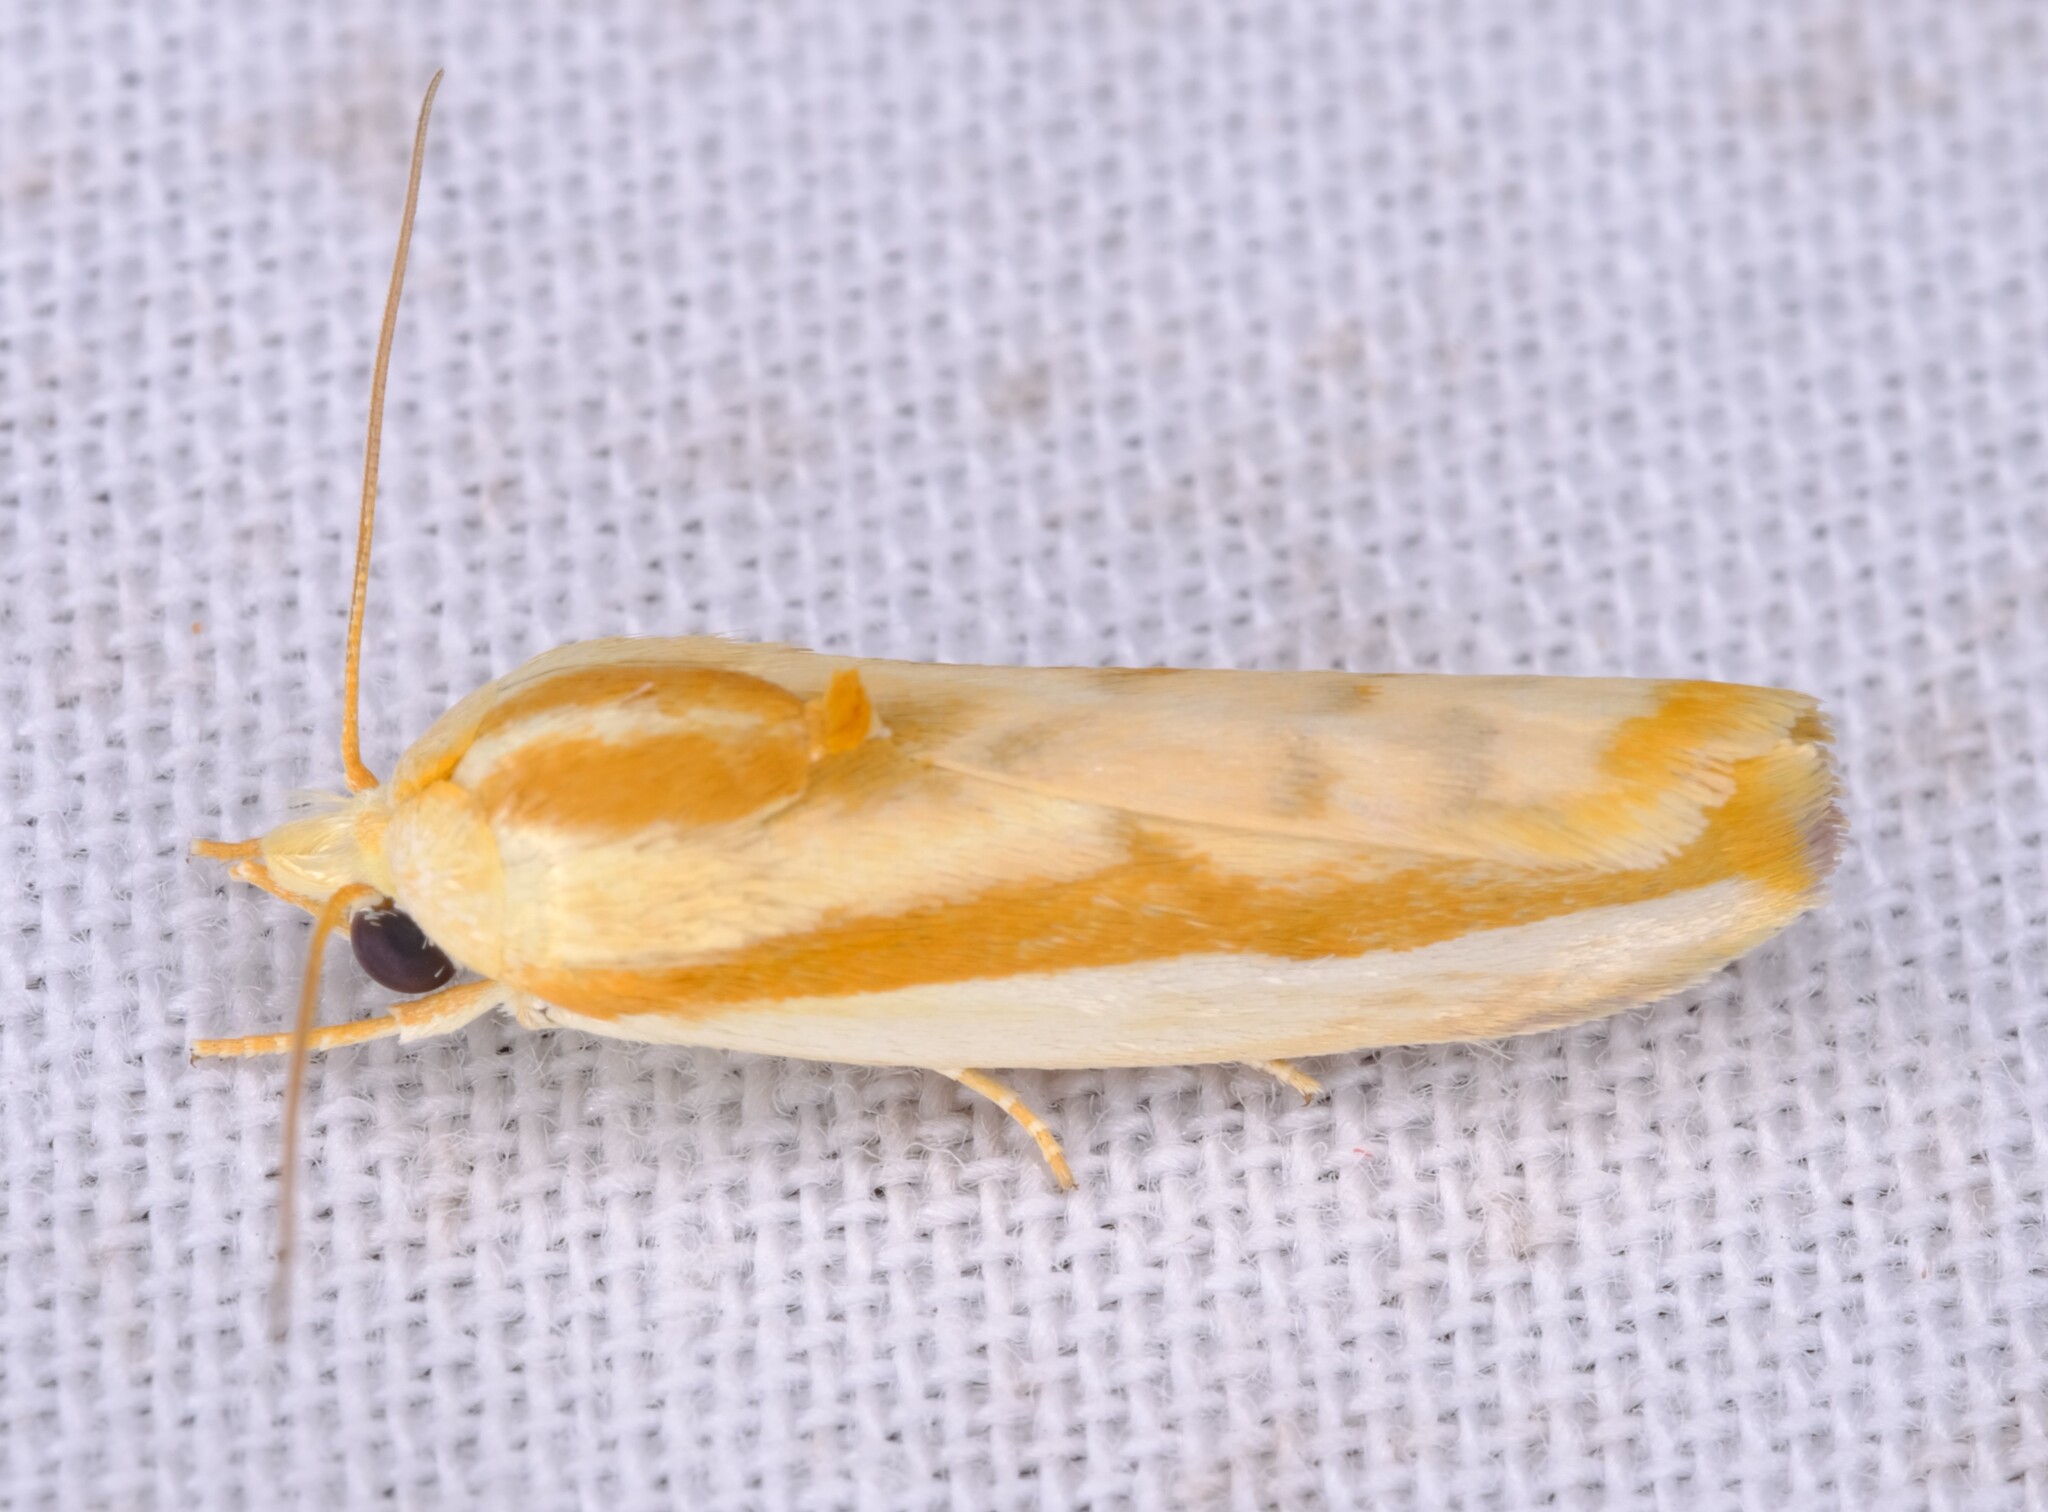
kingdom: Animalia
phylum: Arthropoda
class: Insecta
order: Lepidoptera
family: Nolidae
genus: Earias
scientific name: Earias huegeliana
